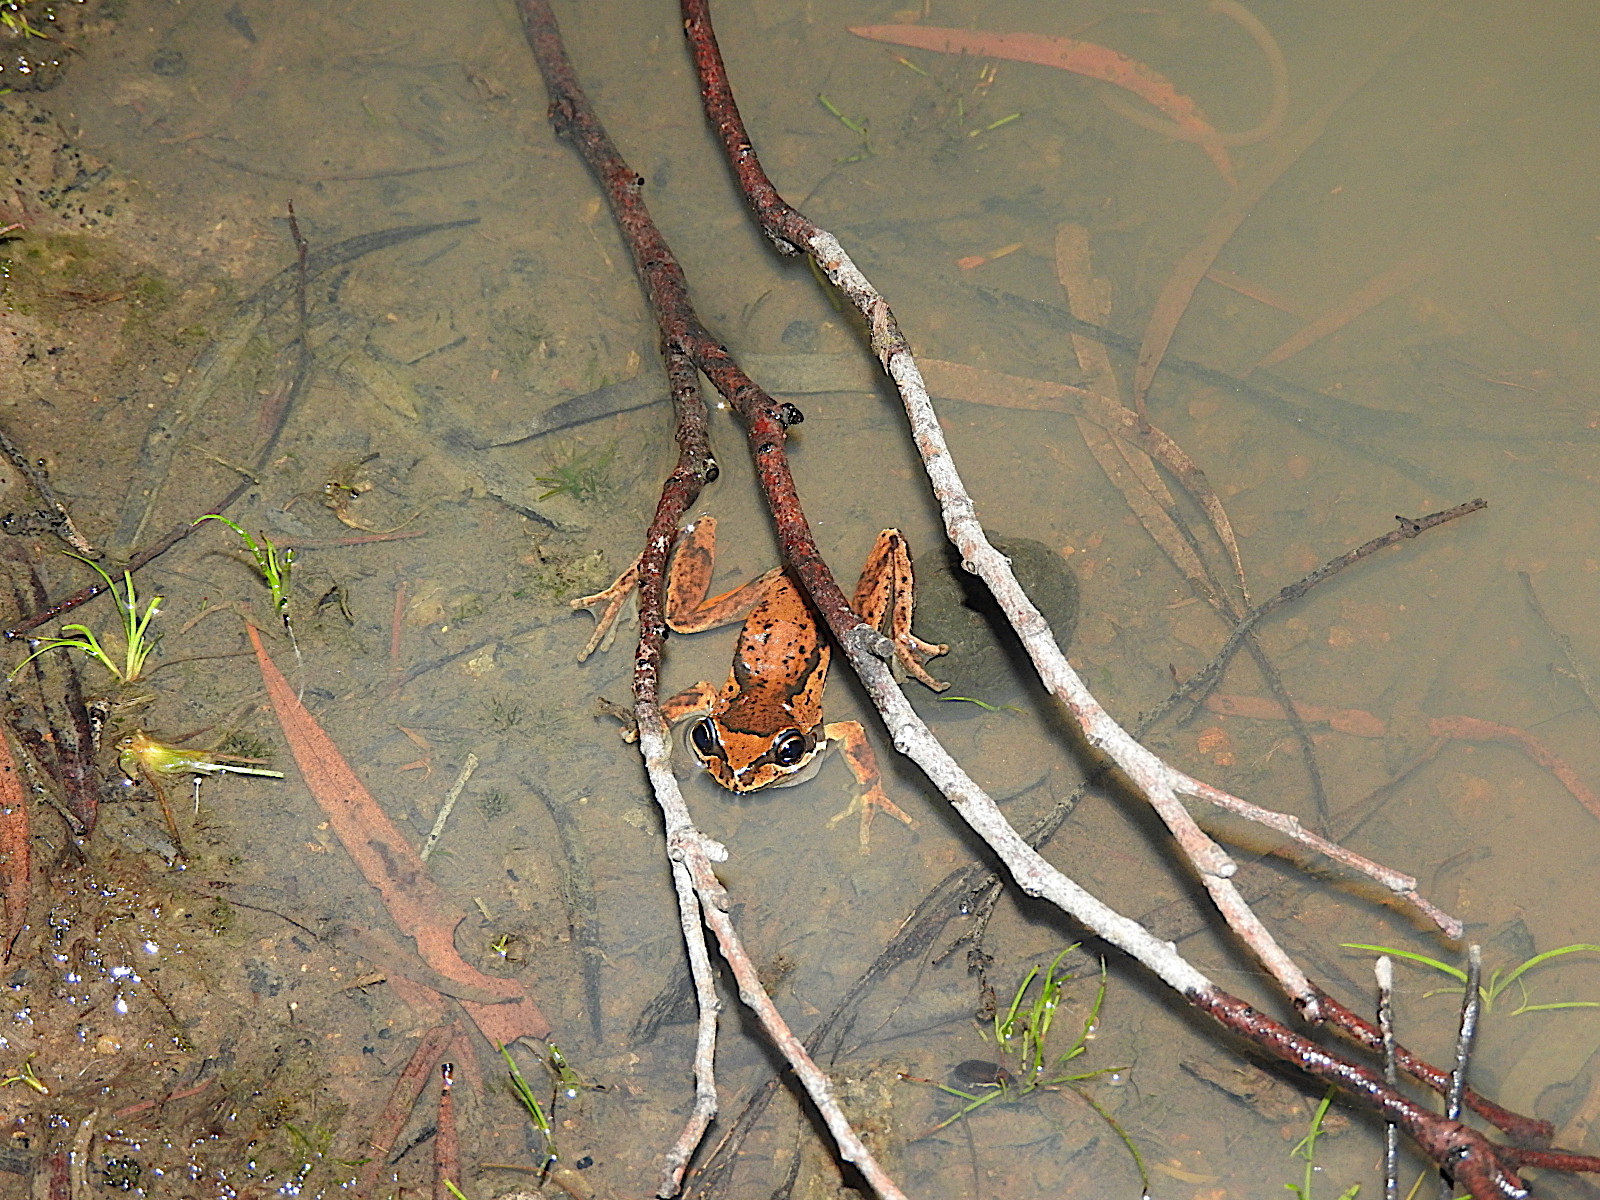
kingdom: Animalia
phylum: Chordata
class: Amphibia
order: Anura
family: Pelodryadidae
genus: Litoria
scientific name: Litoria ewingii
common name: Southern brown tree frog
